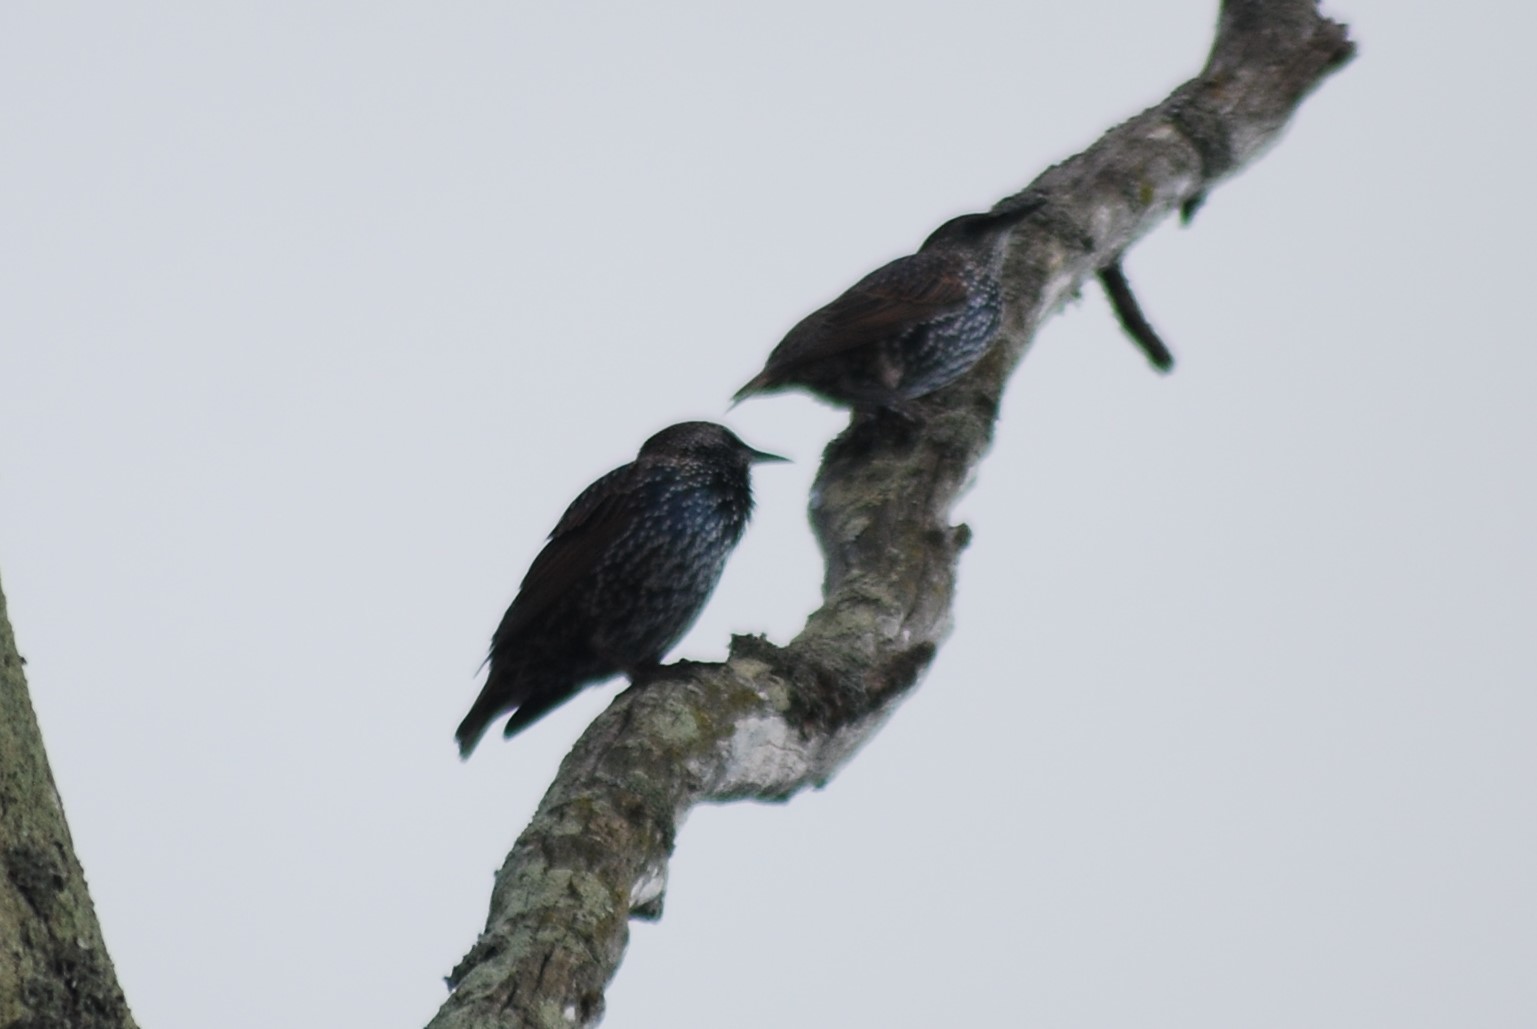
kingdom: Animalia
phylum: Chordata
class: Aves
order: Passeriformes
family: Sturnidae
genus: Sturnus
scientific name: Sturnus vulgaris
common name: Common starling
